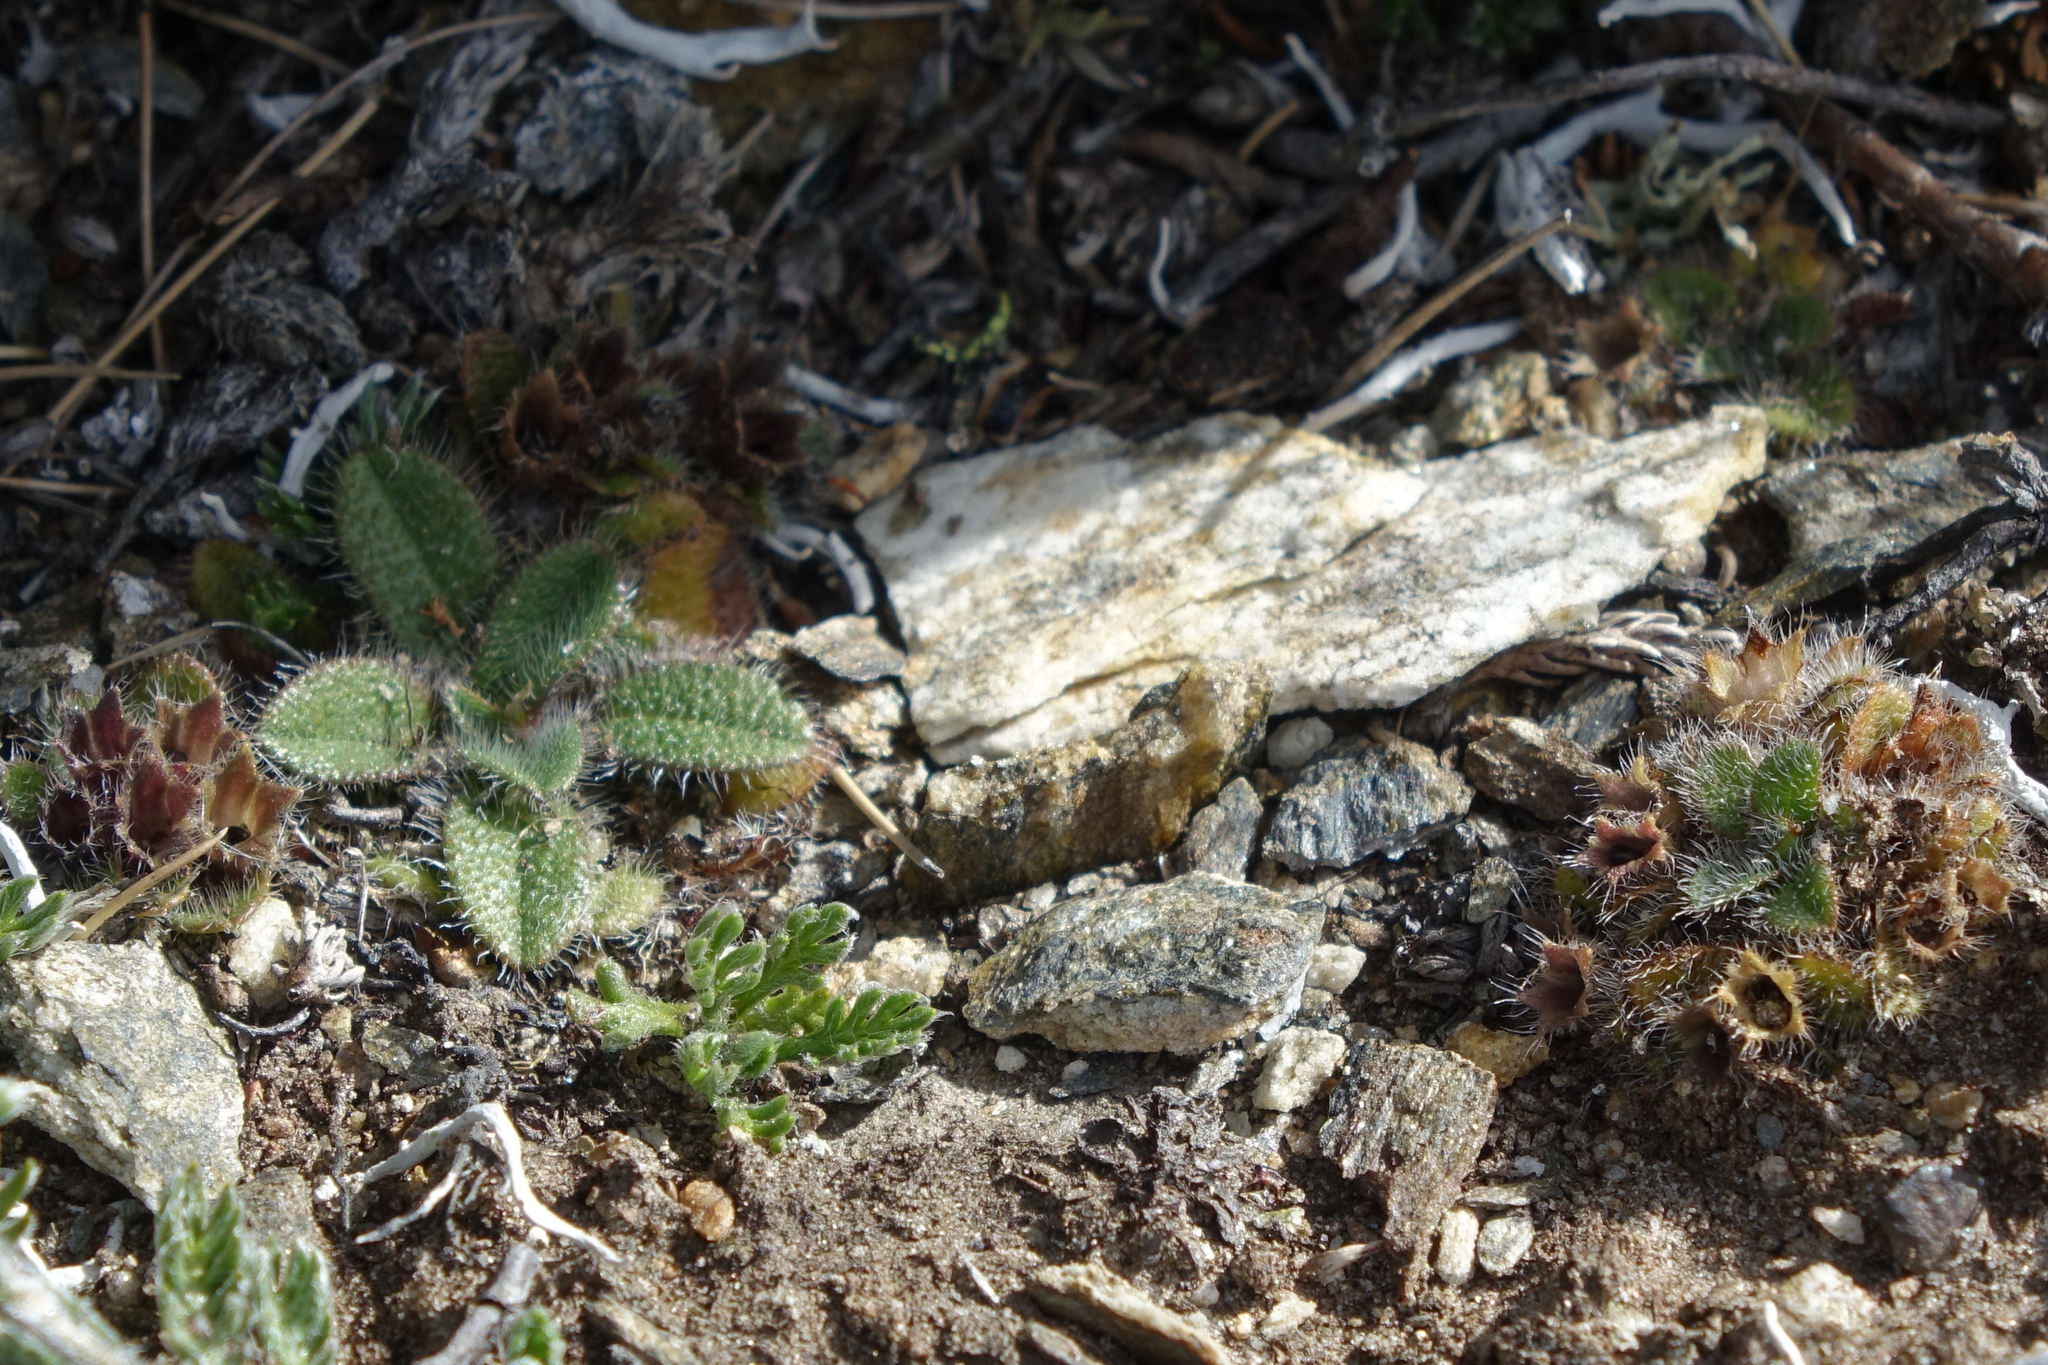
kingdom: Plantae
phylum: Tracheophyta
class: Magnoliopsida
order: Boraginales
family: Boraginaceae
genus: Myosotis
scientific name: Myosotis antarctica
